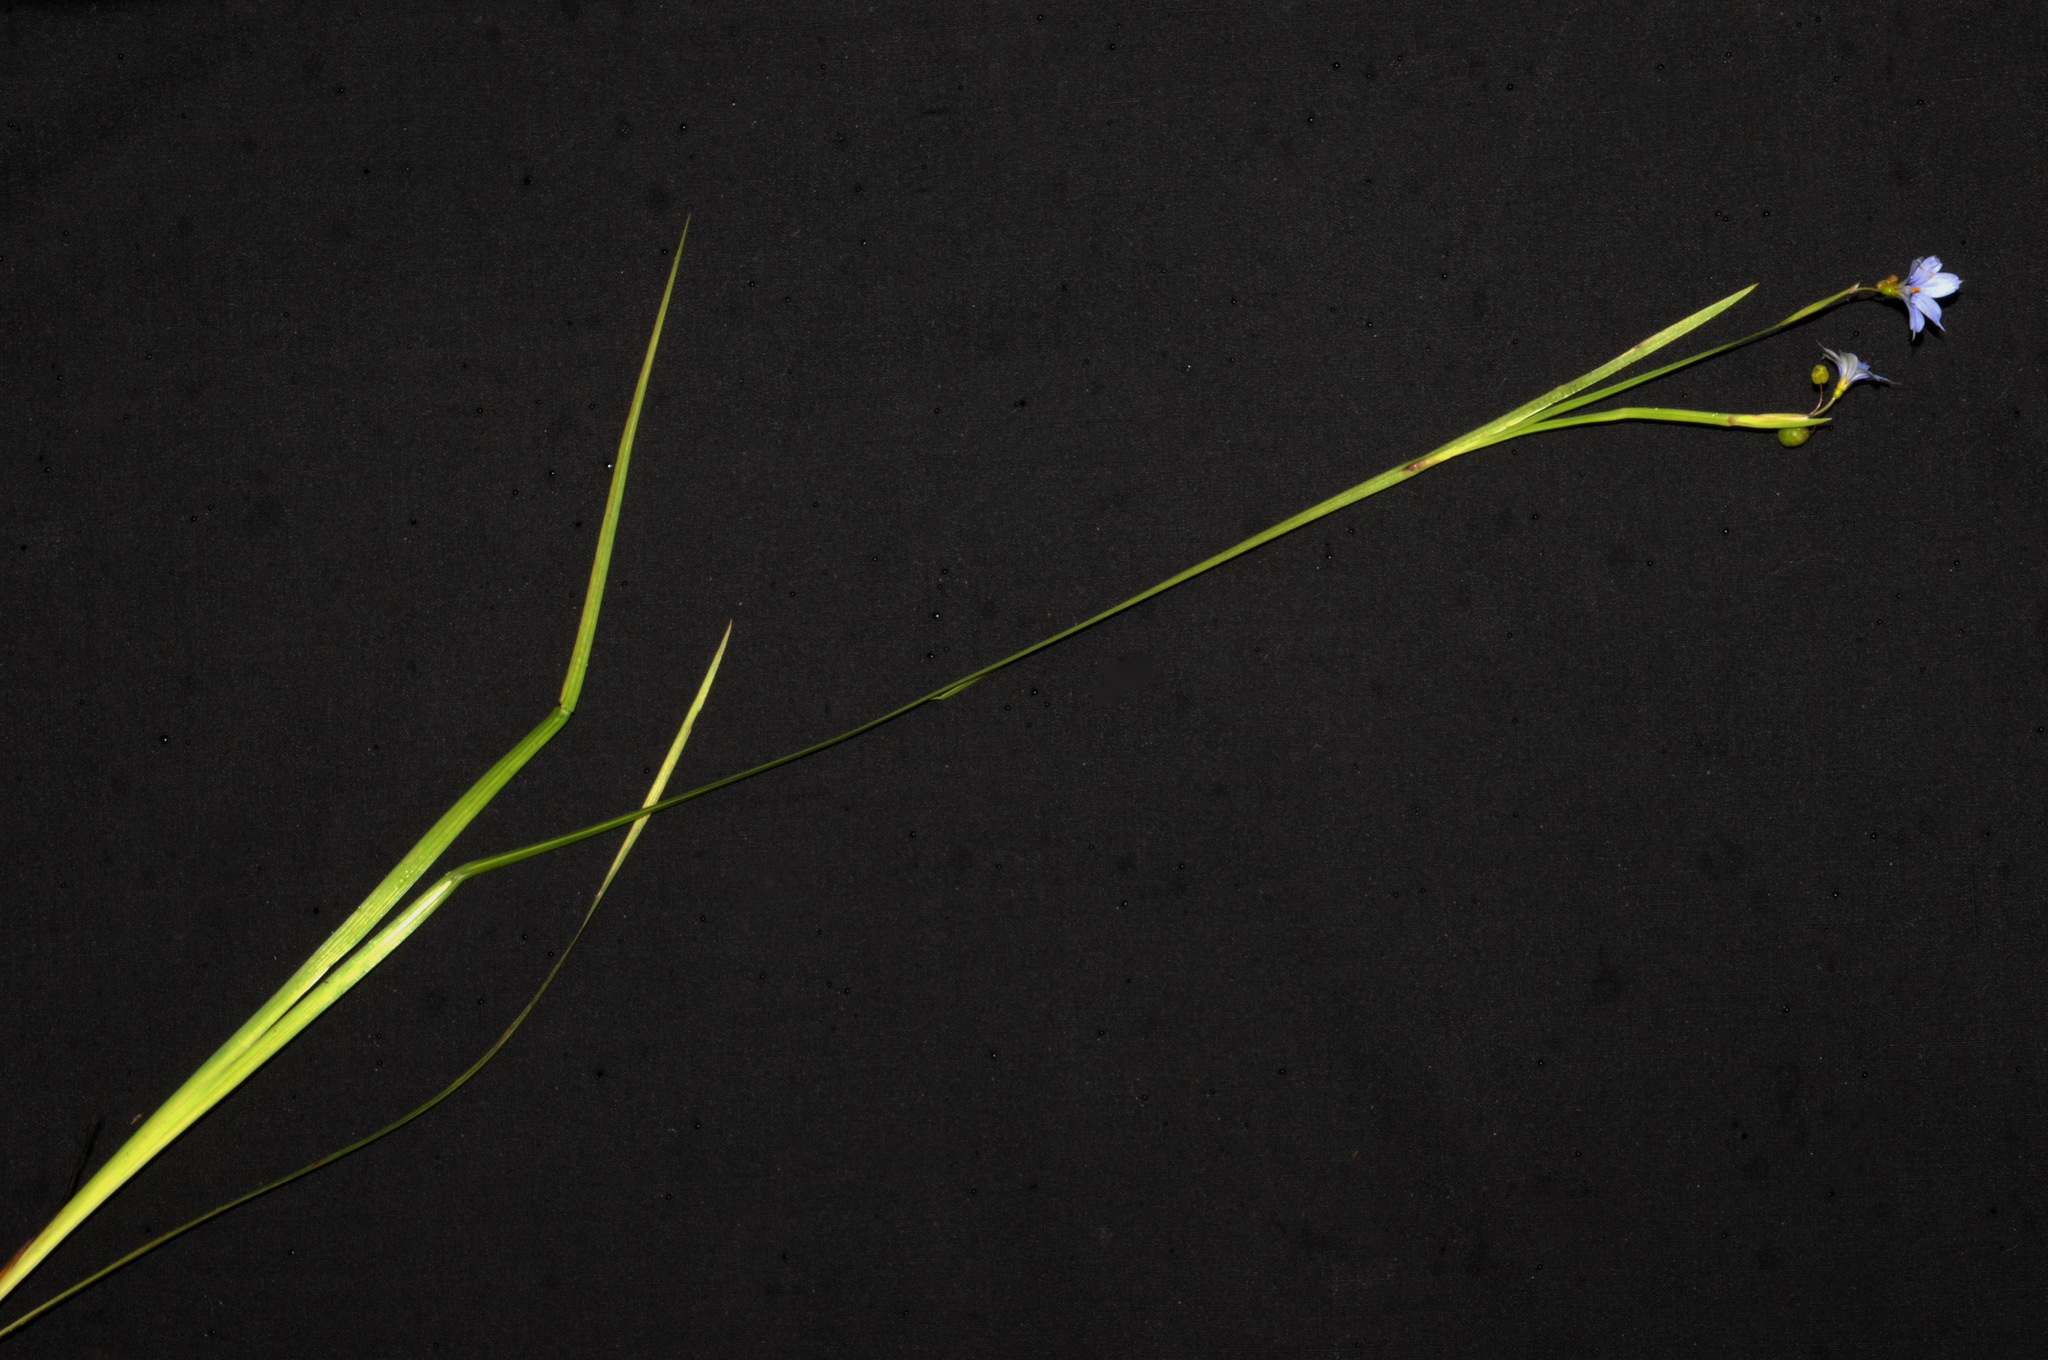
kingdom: Plantae
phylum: Tracheophyta
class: Liliopsida
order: Asparagales
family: Iridaceae
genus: Sisyrinchium
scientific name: Sisyrinchium angustifolium
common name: Narrow-leaf blue-eyed-grass
